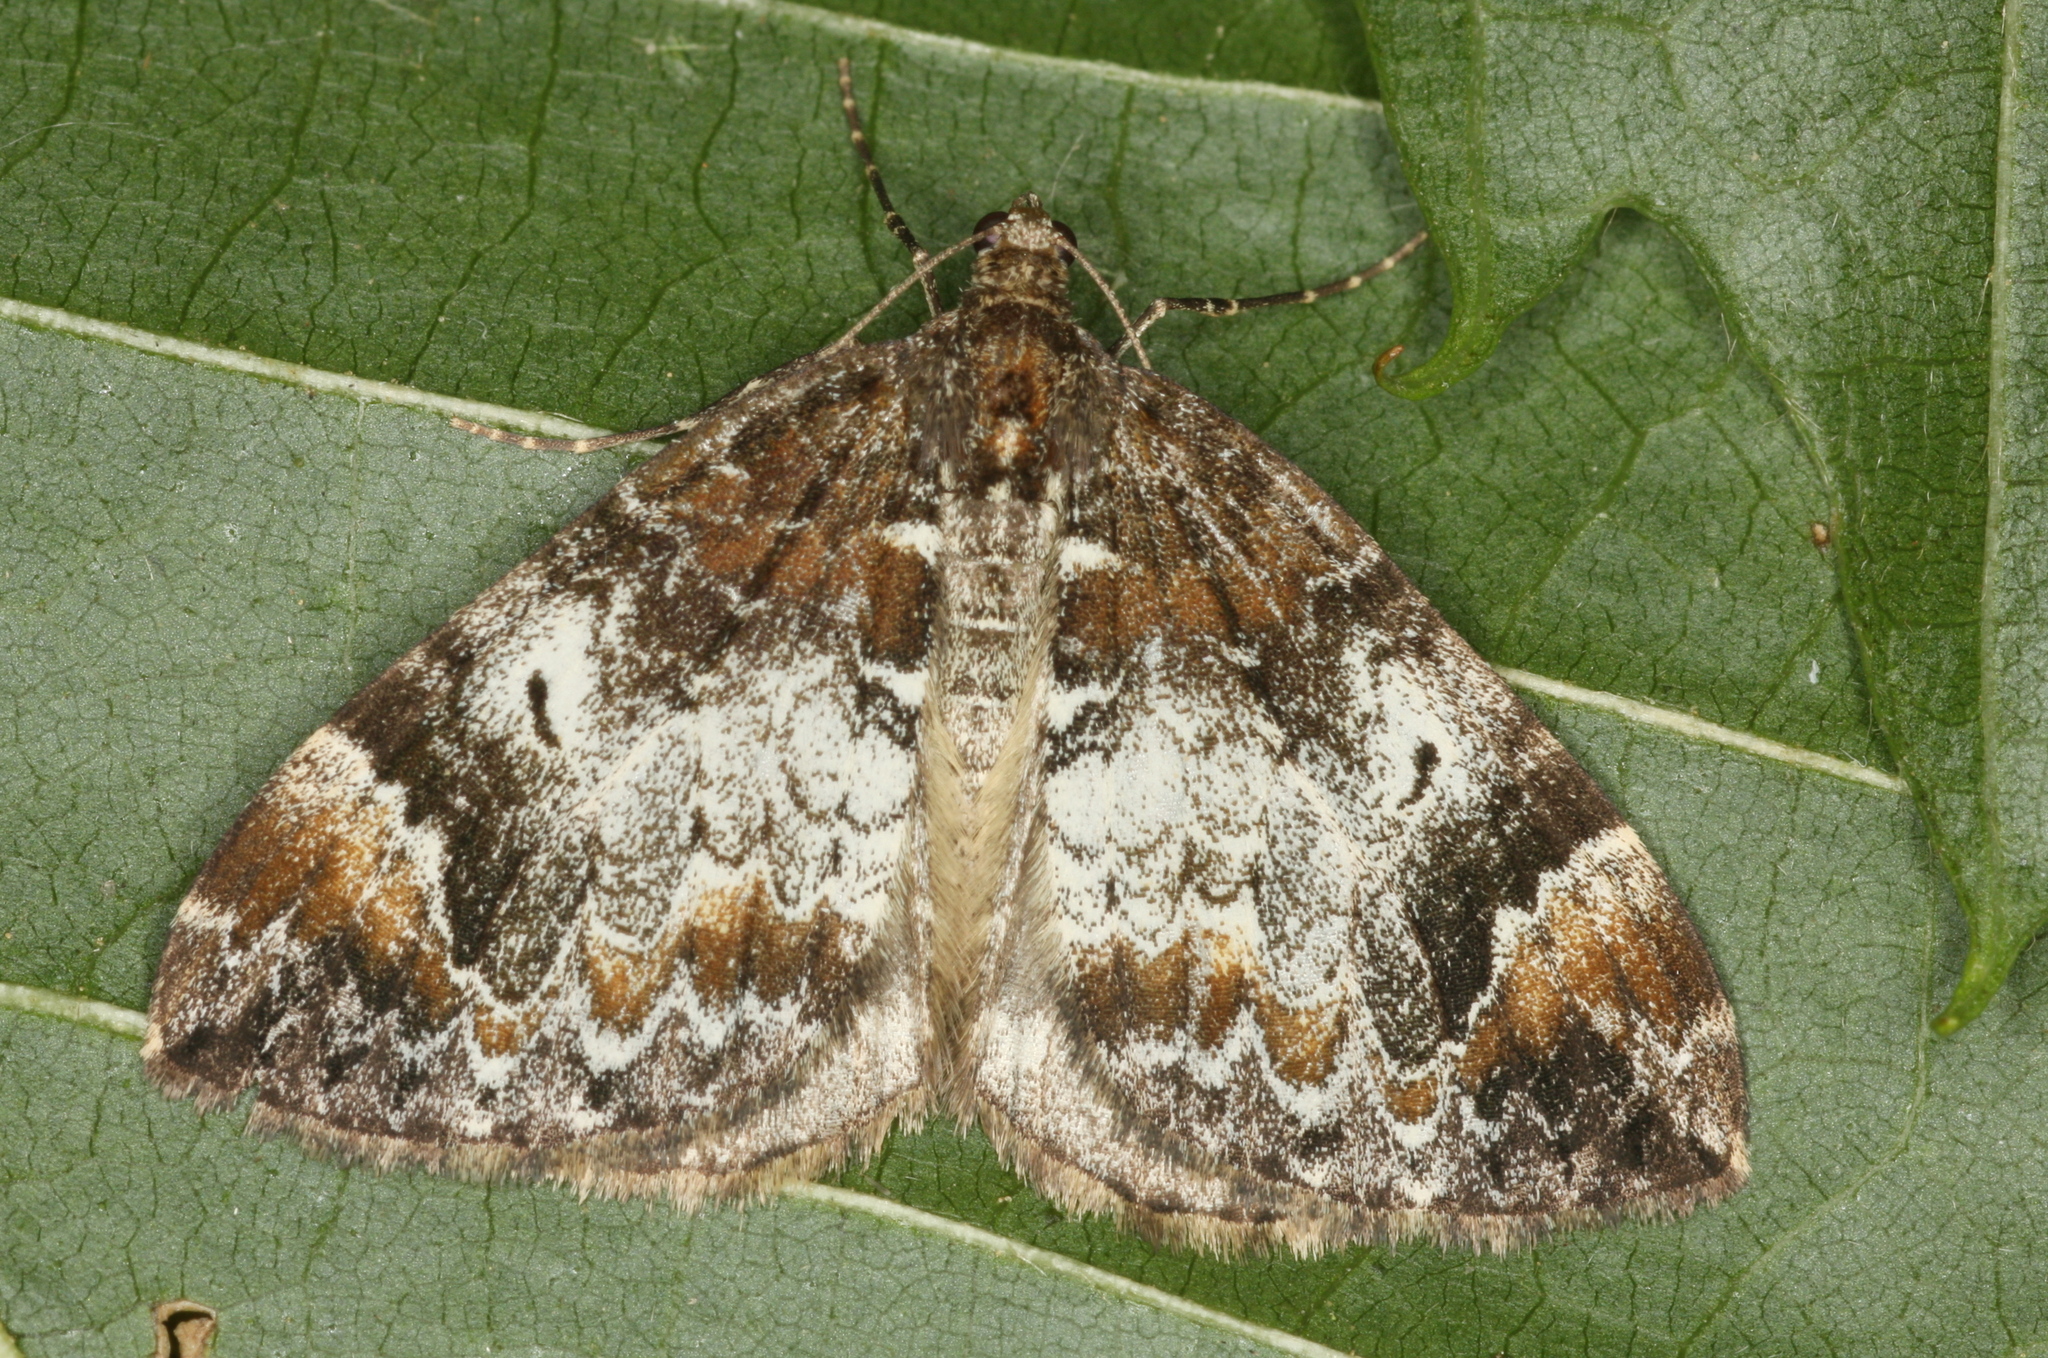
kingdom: Animalia
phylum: Arthropoda
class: Insecta
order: Lepidoptera
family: Geometridae
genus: Dysstroma
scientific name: Dysstroma truncata
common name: Common marbled carpet
